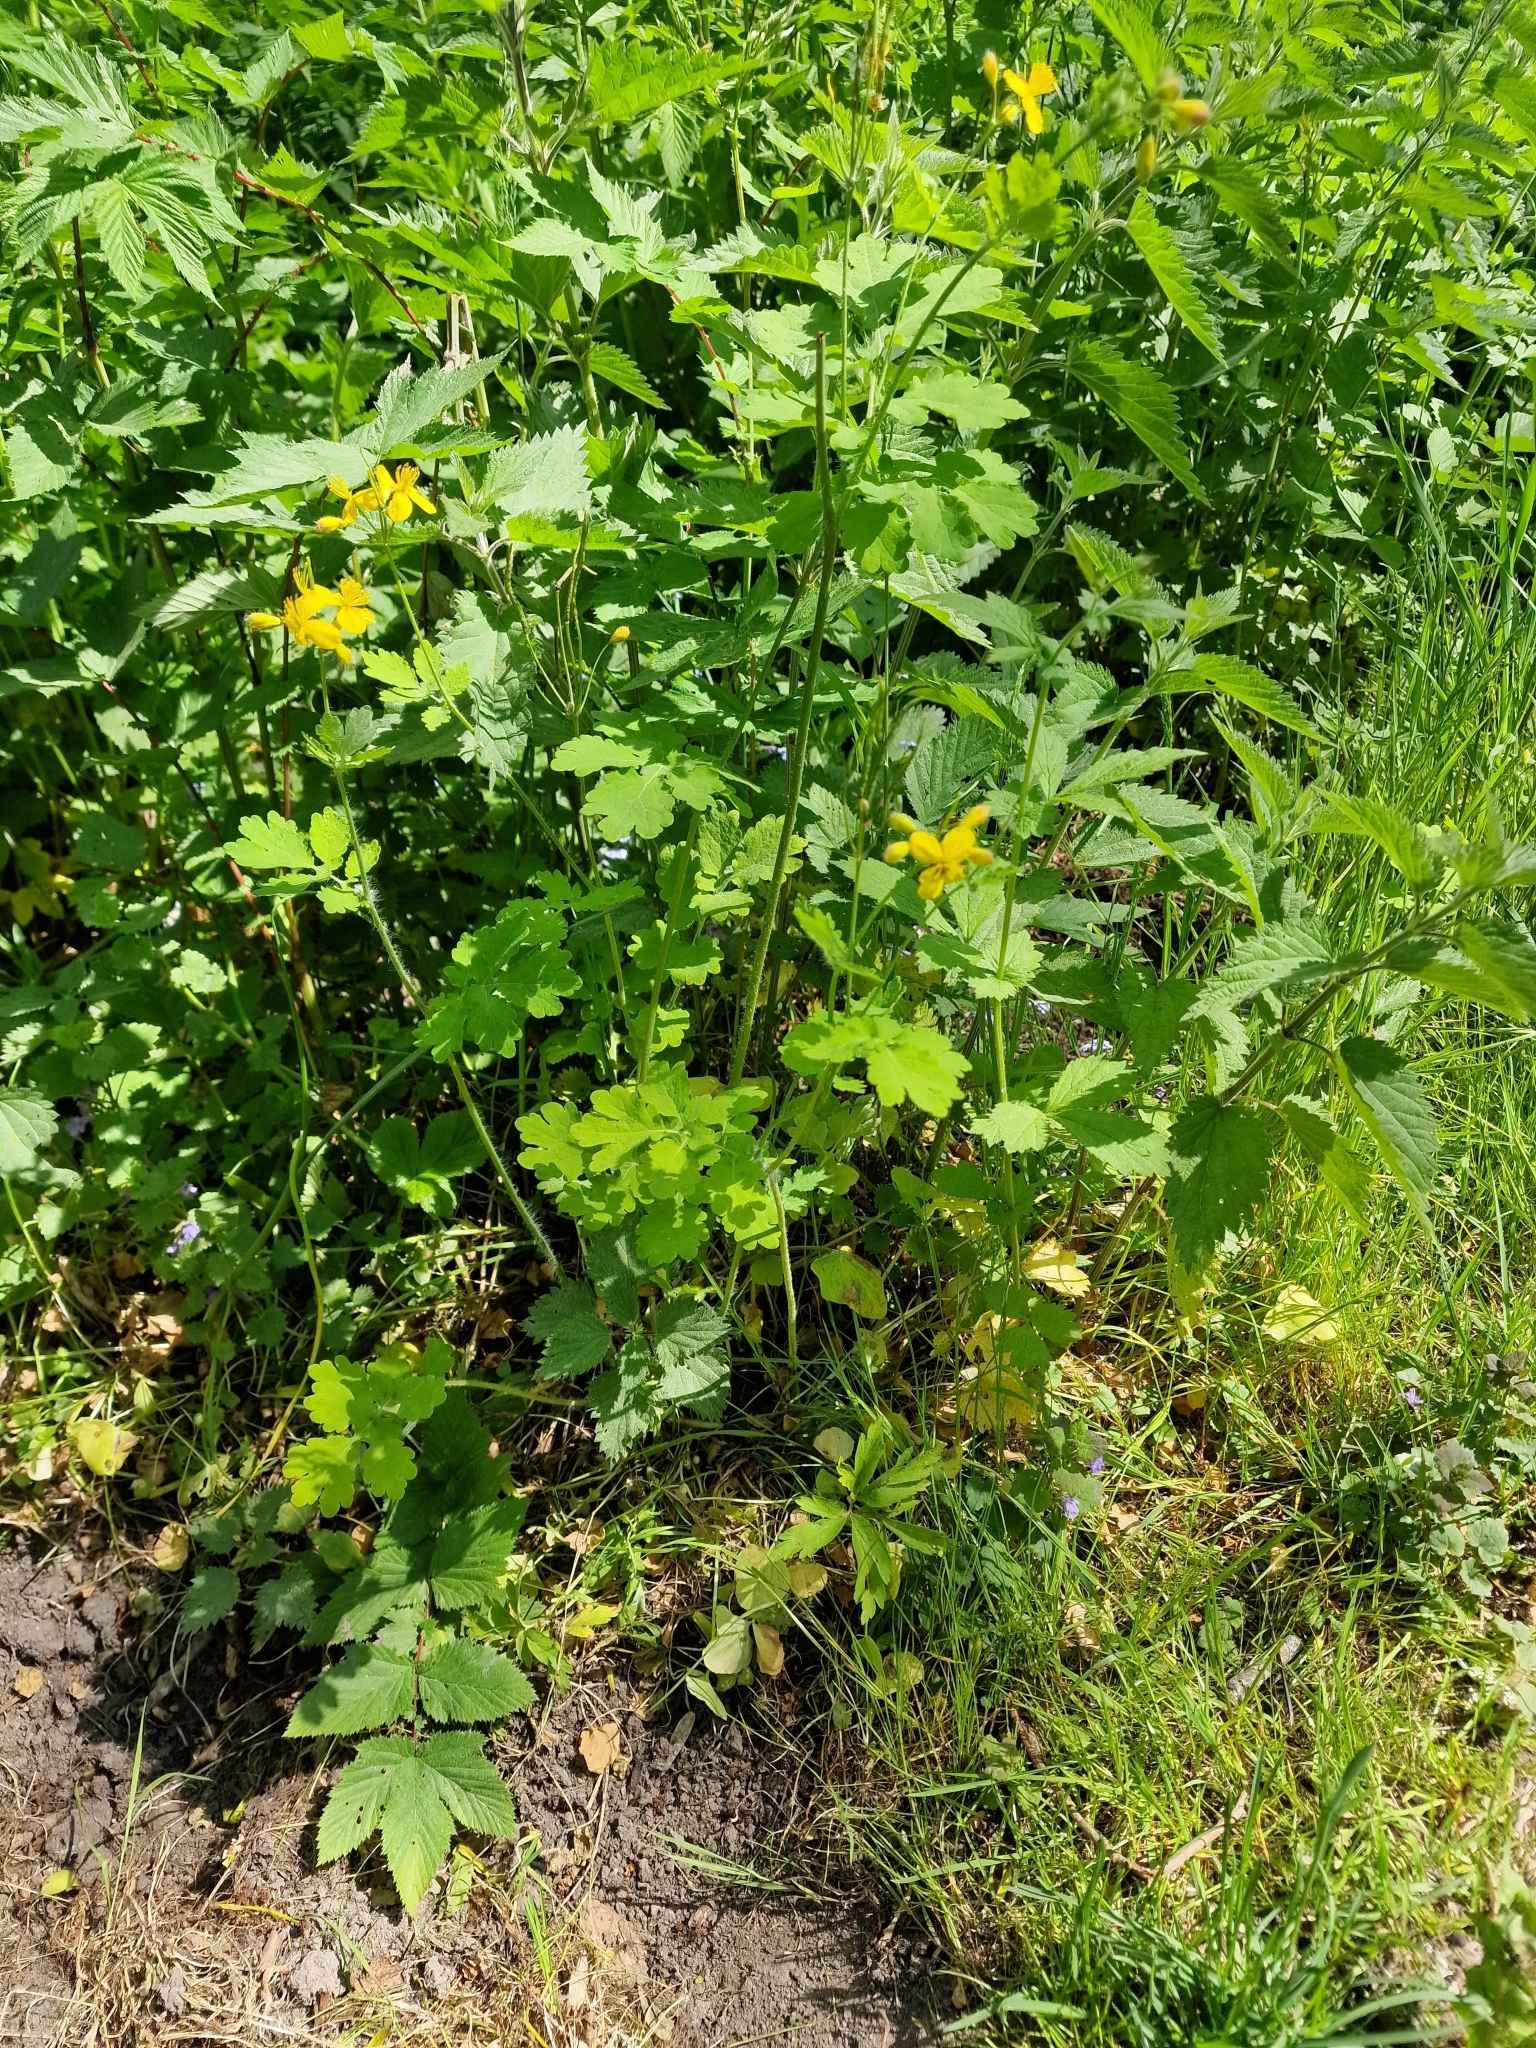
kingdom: Plantae
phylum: Tracheophyta
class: Magnoliopsida
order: Ranunculales
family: Papaveraceae
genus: Chelidonium
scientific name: Chelidonium majus
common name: Greater celandine
